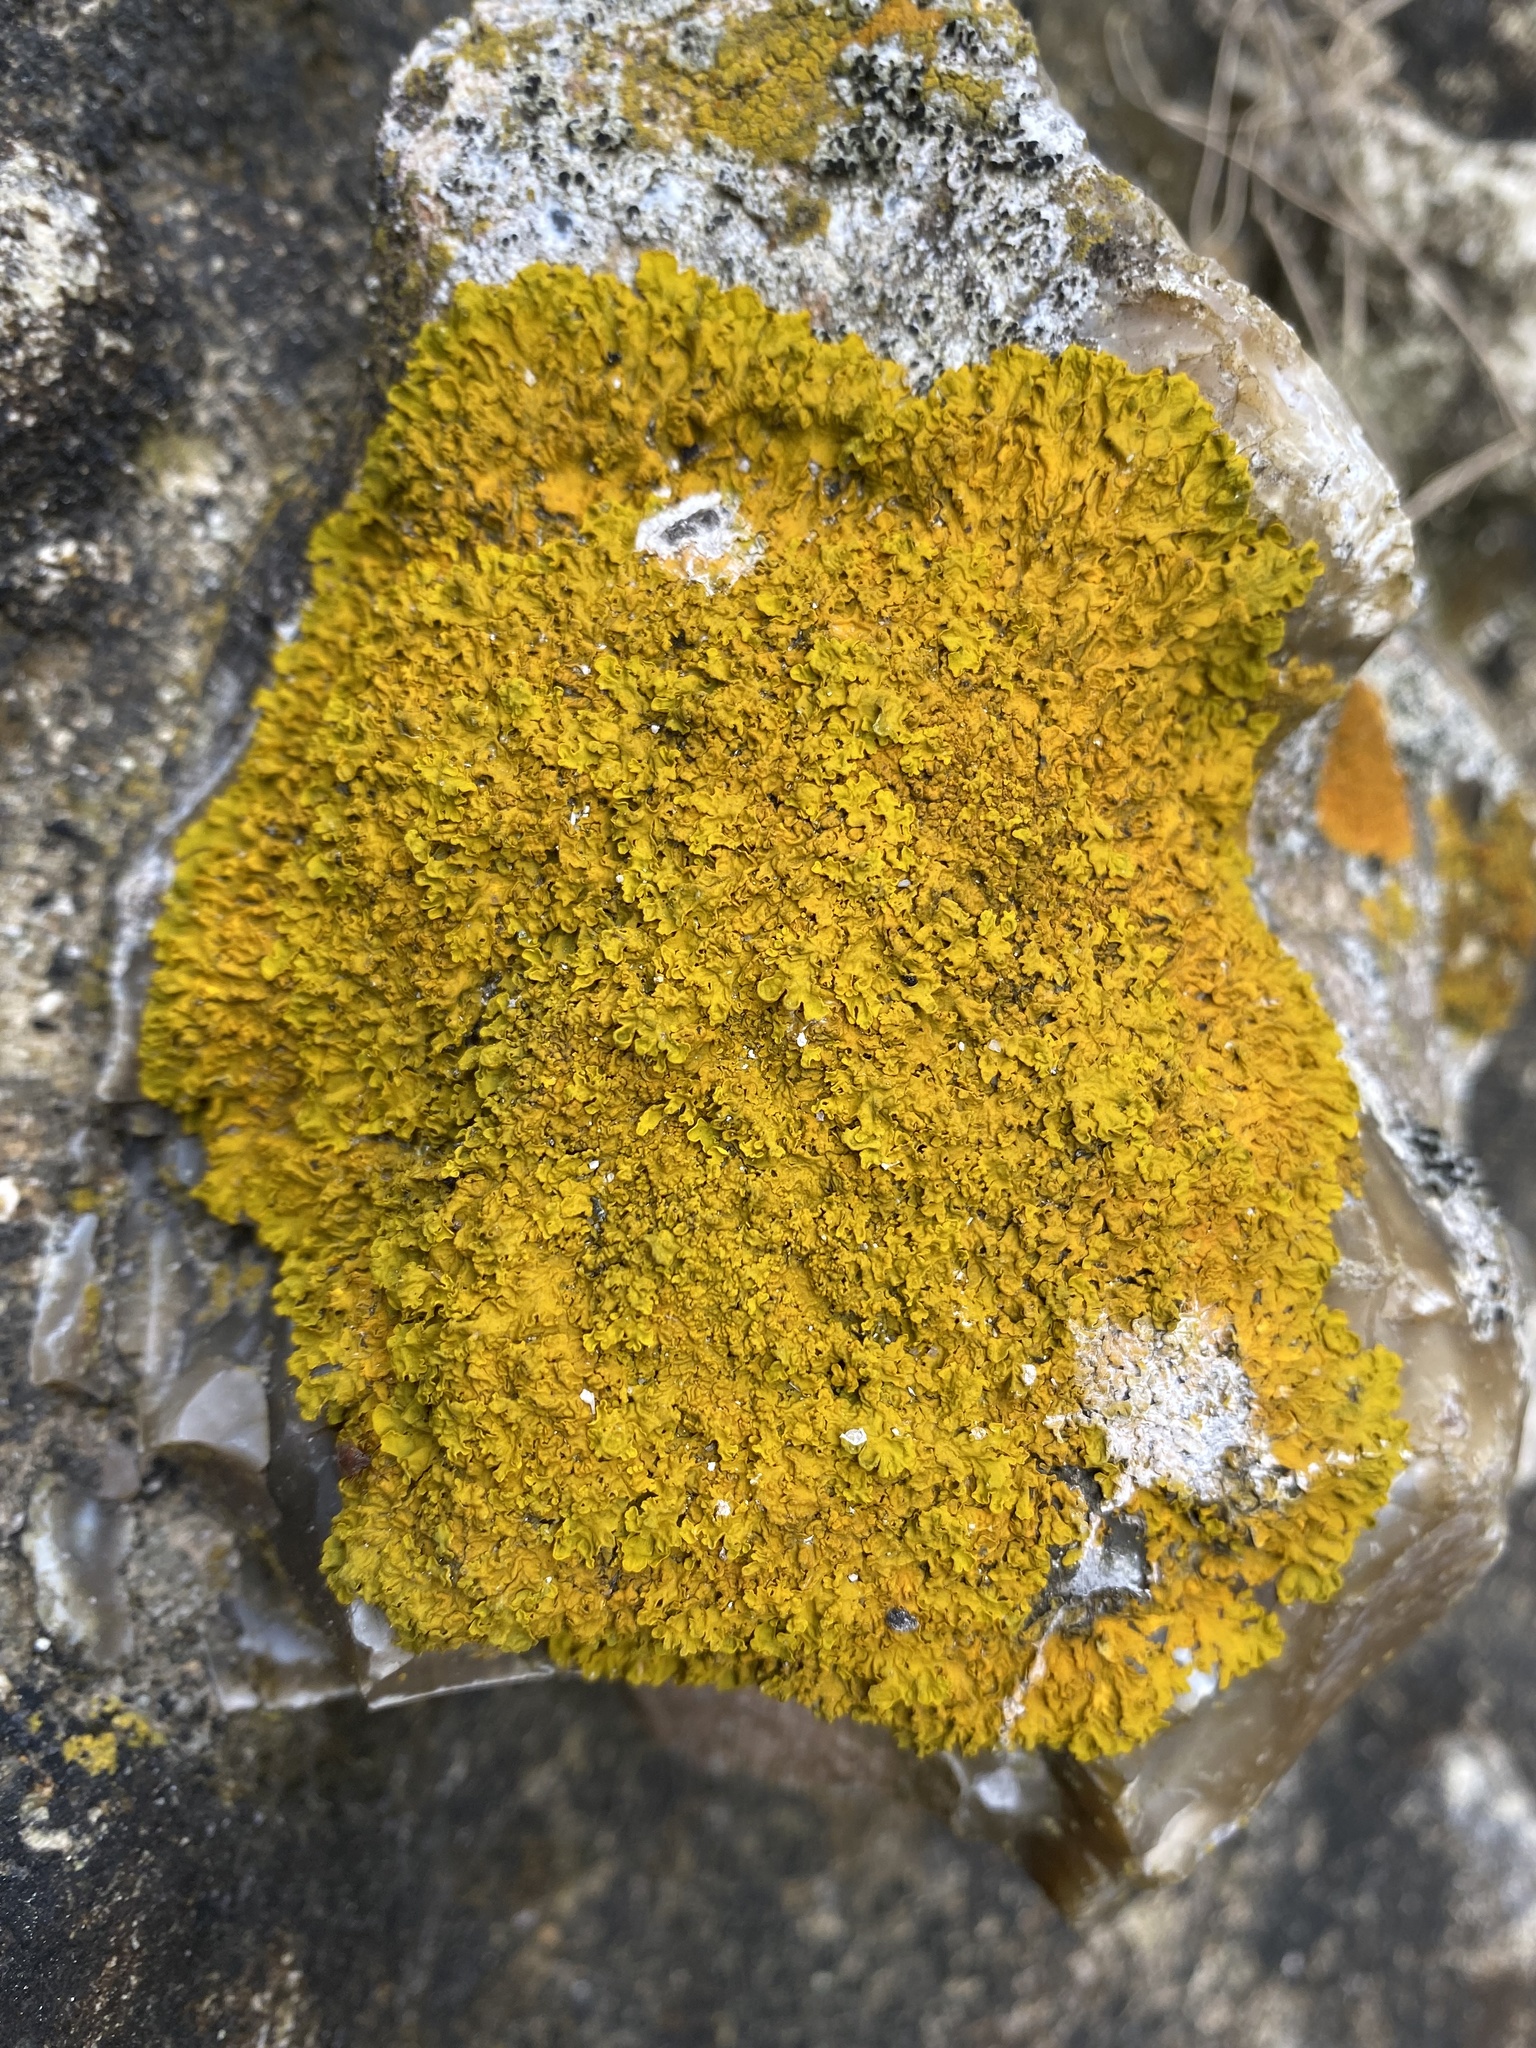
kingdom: Fungi
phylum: Ascomycota
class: Lecanoromycetes
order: Teloschistales
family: Teloschistaceae
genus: Xanthoria
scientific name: Xanthoria
